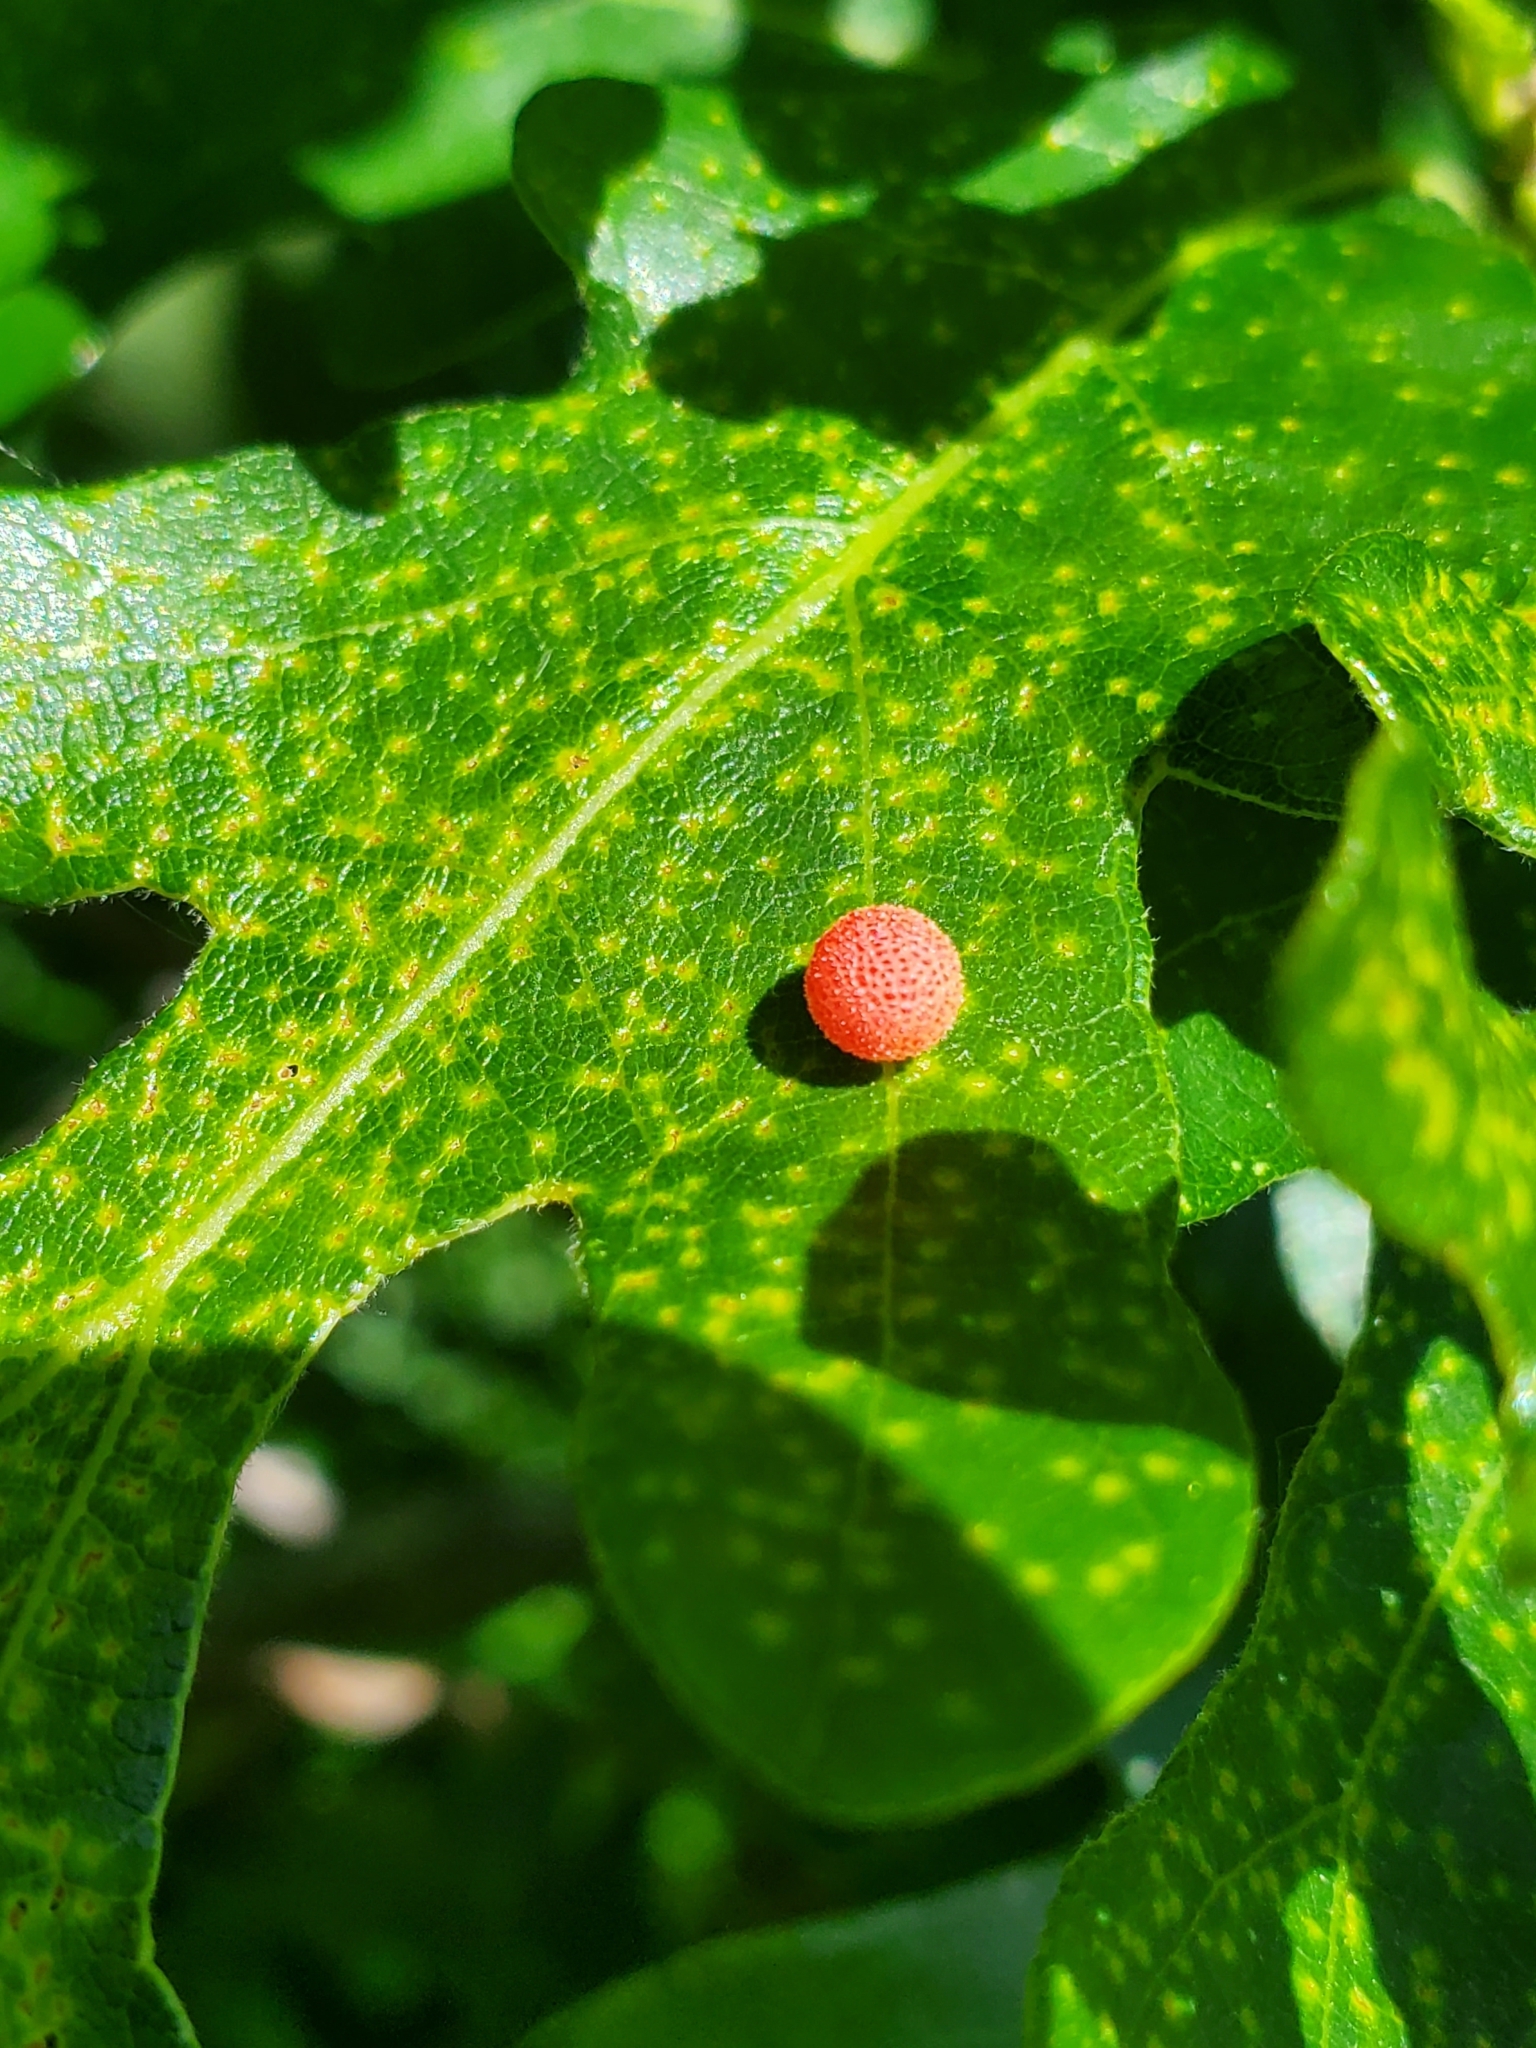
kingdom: Animalia
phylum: Arthropoda
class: Insecta
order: Hymenoptera
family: Cynipidae
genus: Acraspis
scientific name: Acraspis quercushirta
